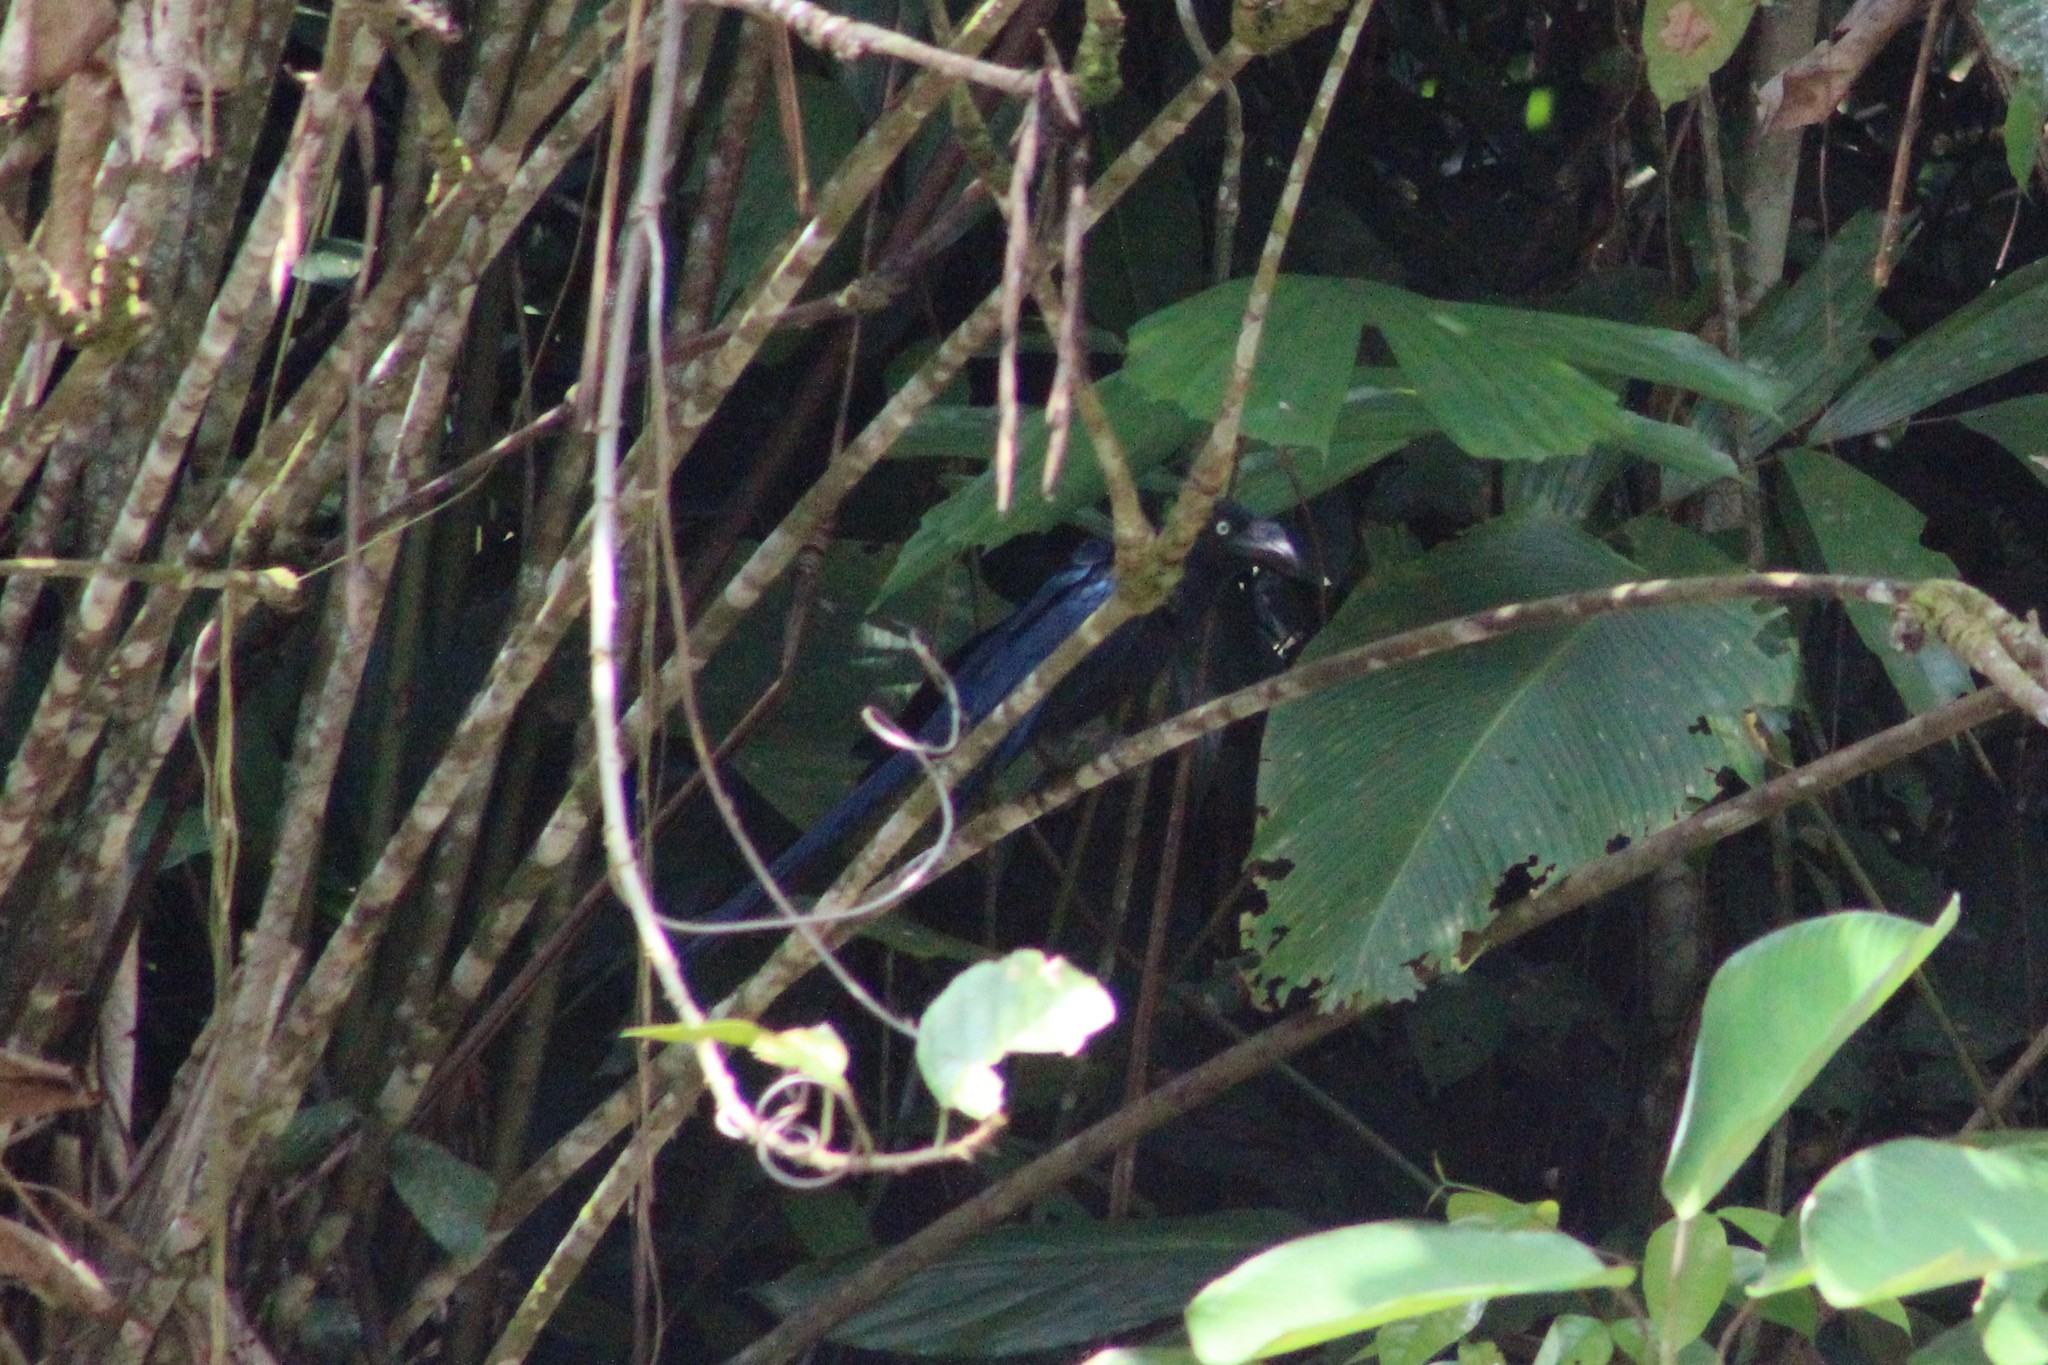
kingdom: Animalia
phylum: Chordata
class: Aves
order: Cuculiformes
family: Cuculidae
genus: Crotophaga
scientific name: Crotophaga major
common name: Greater ani
